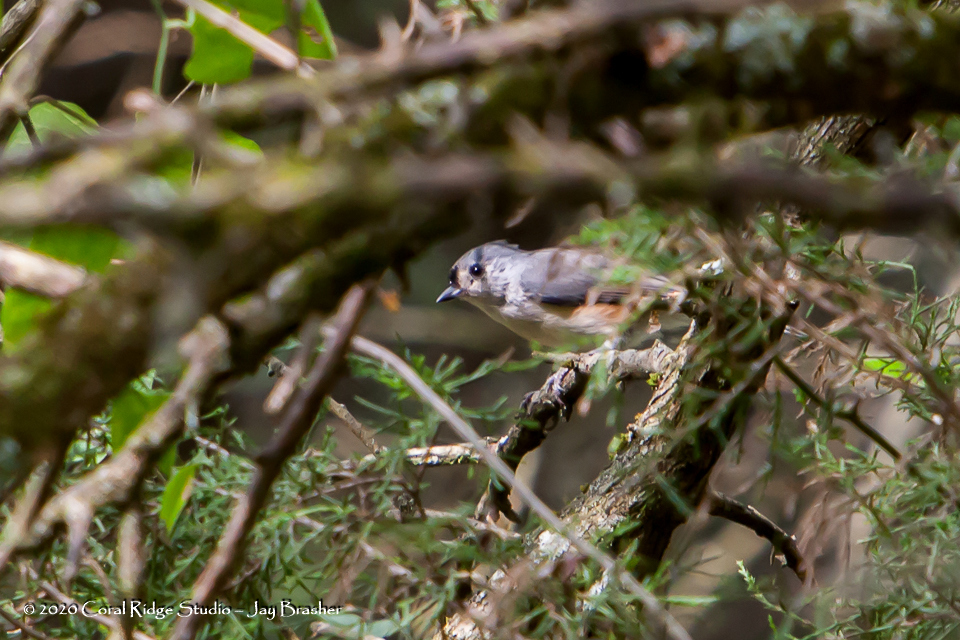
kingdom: Animalia
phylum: Chordata
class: Aves
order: Passeriformes
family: Paridae
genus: Baeolophus
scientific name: Baeolophus bicolor
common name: Tufted titmouse
